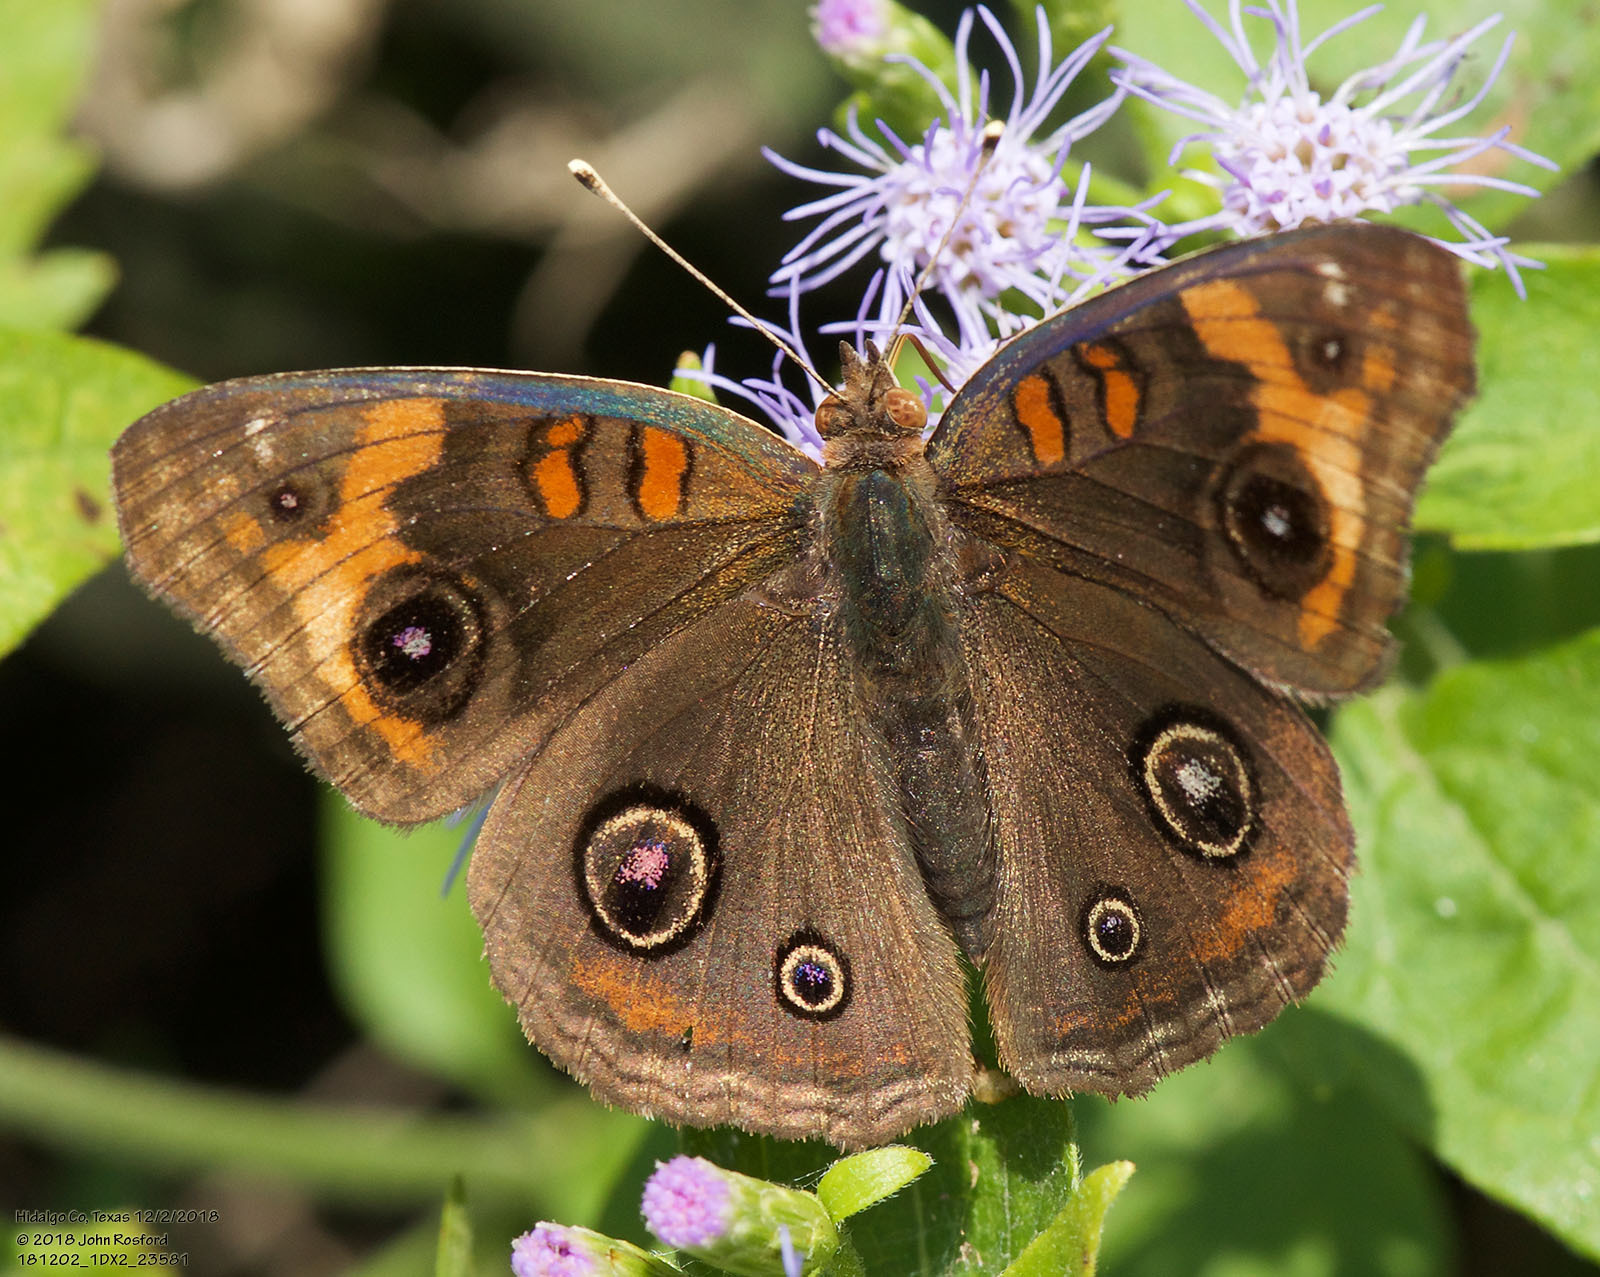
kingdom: Animalia
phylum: Arthropoda
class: Insecta
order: Lepidoptera
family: Nymphalidae
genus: Junonia
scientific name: Junonia stemosa
